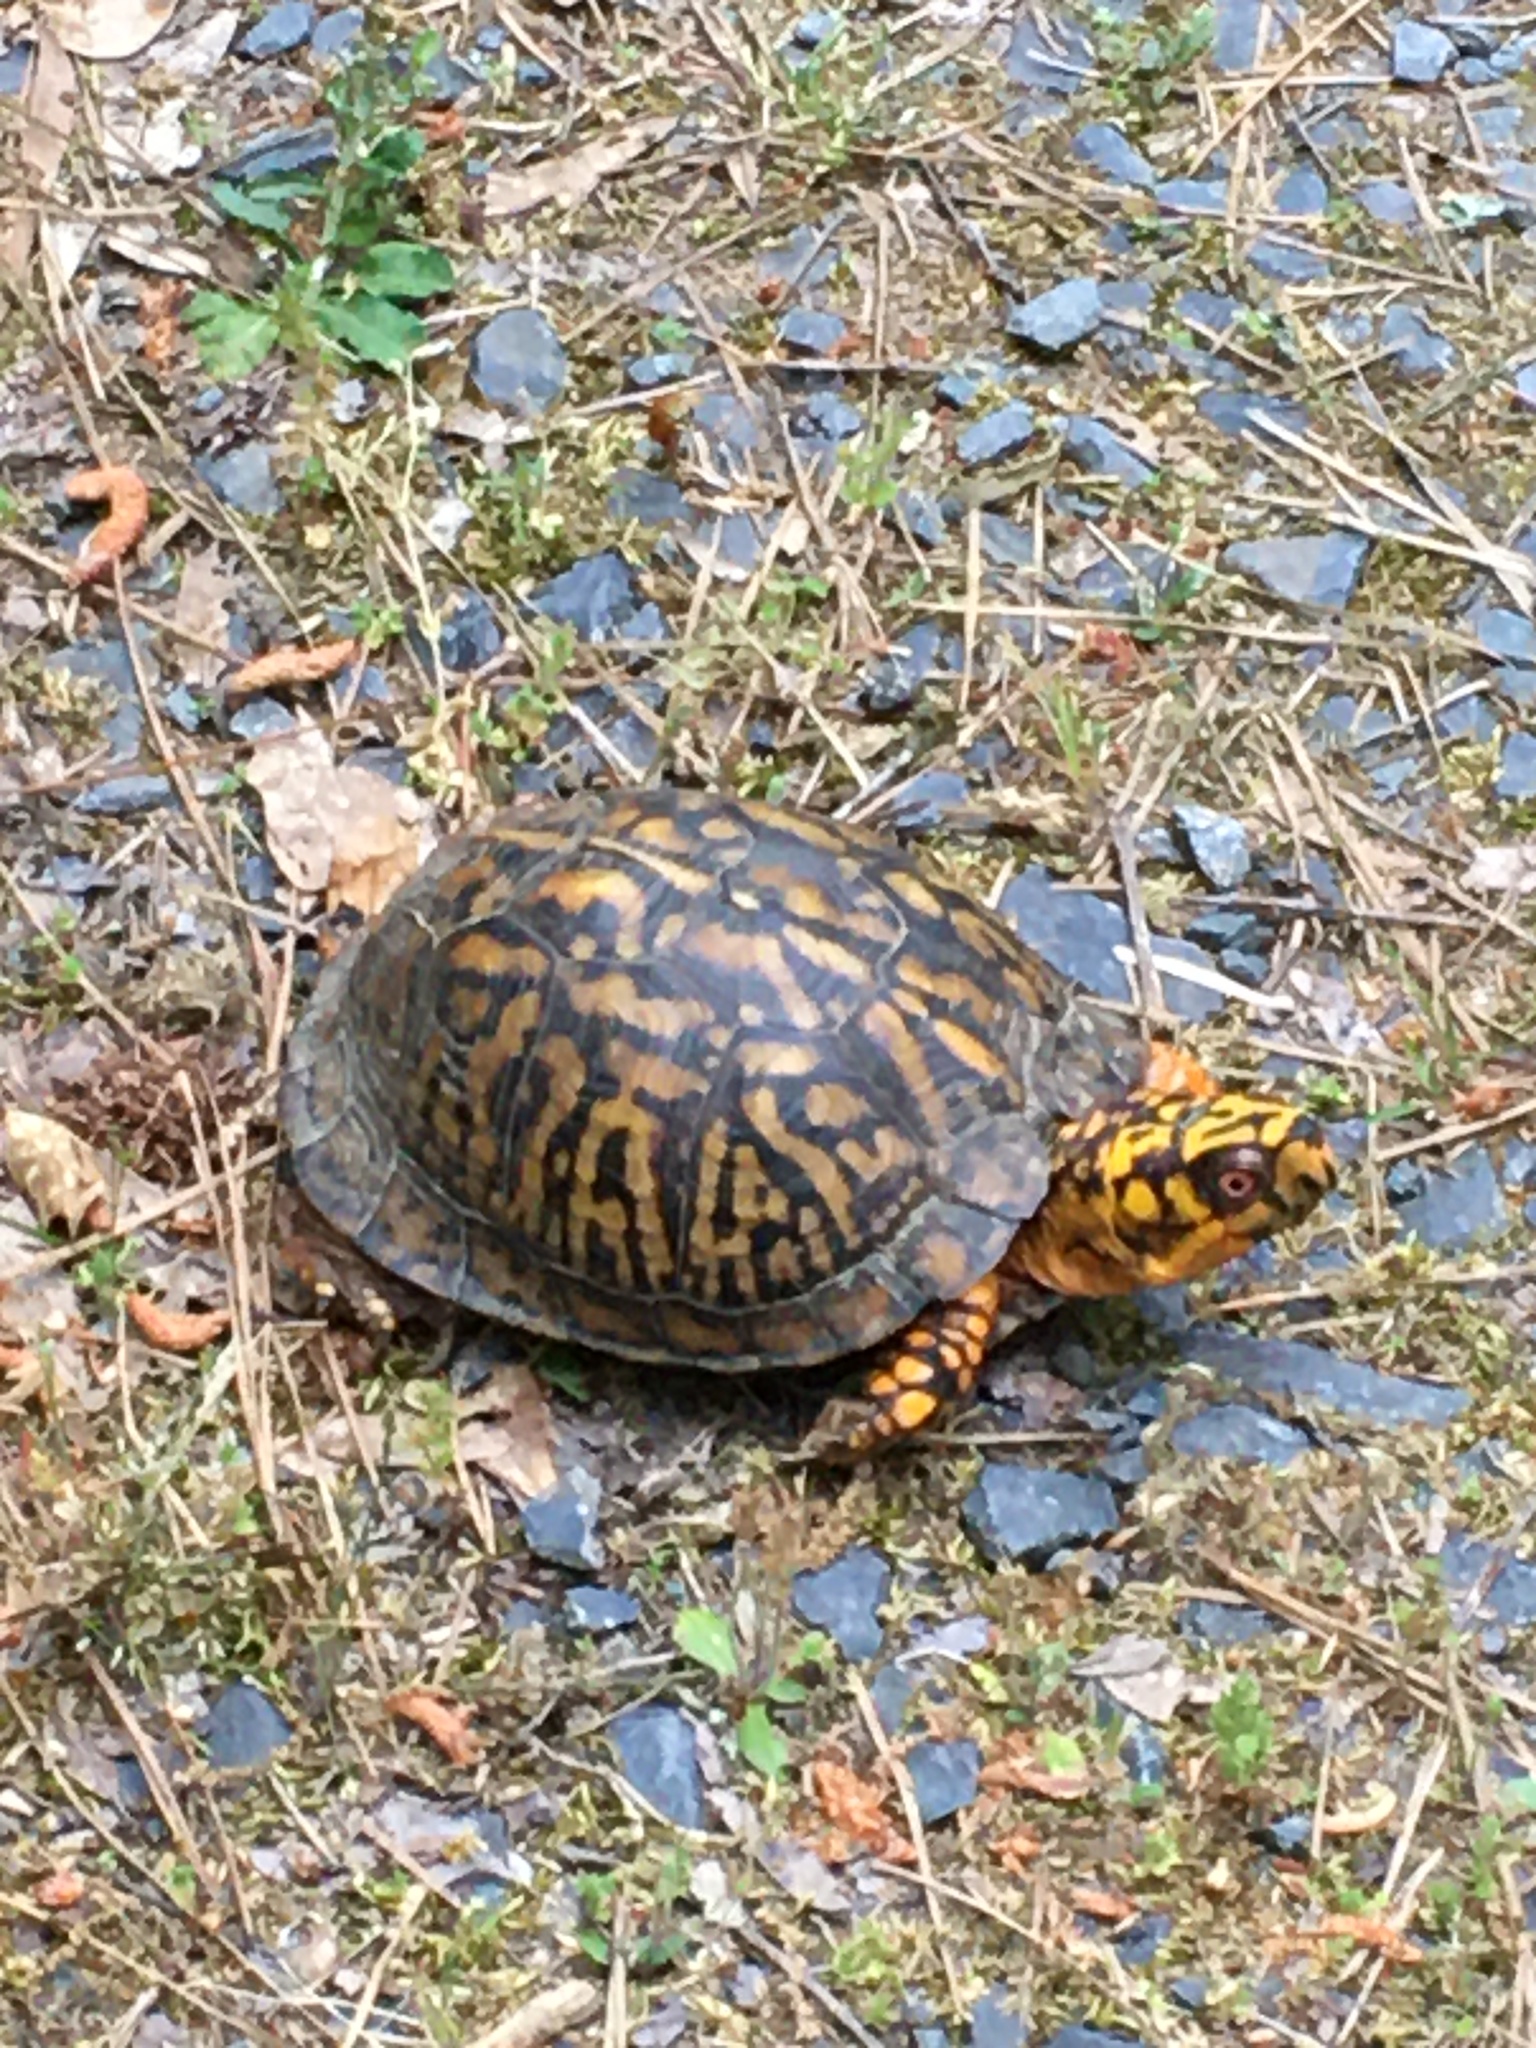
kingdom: Animalia
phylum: Chordata
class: Testudines
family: Emydidae
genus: Terrapene
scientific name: Terrapene carolina
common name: Common box turtle
